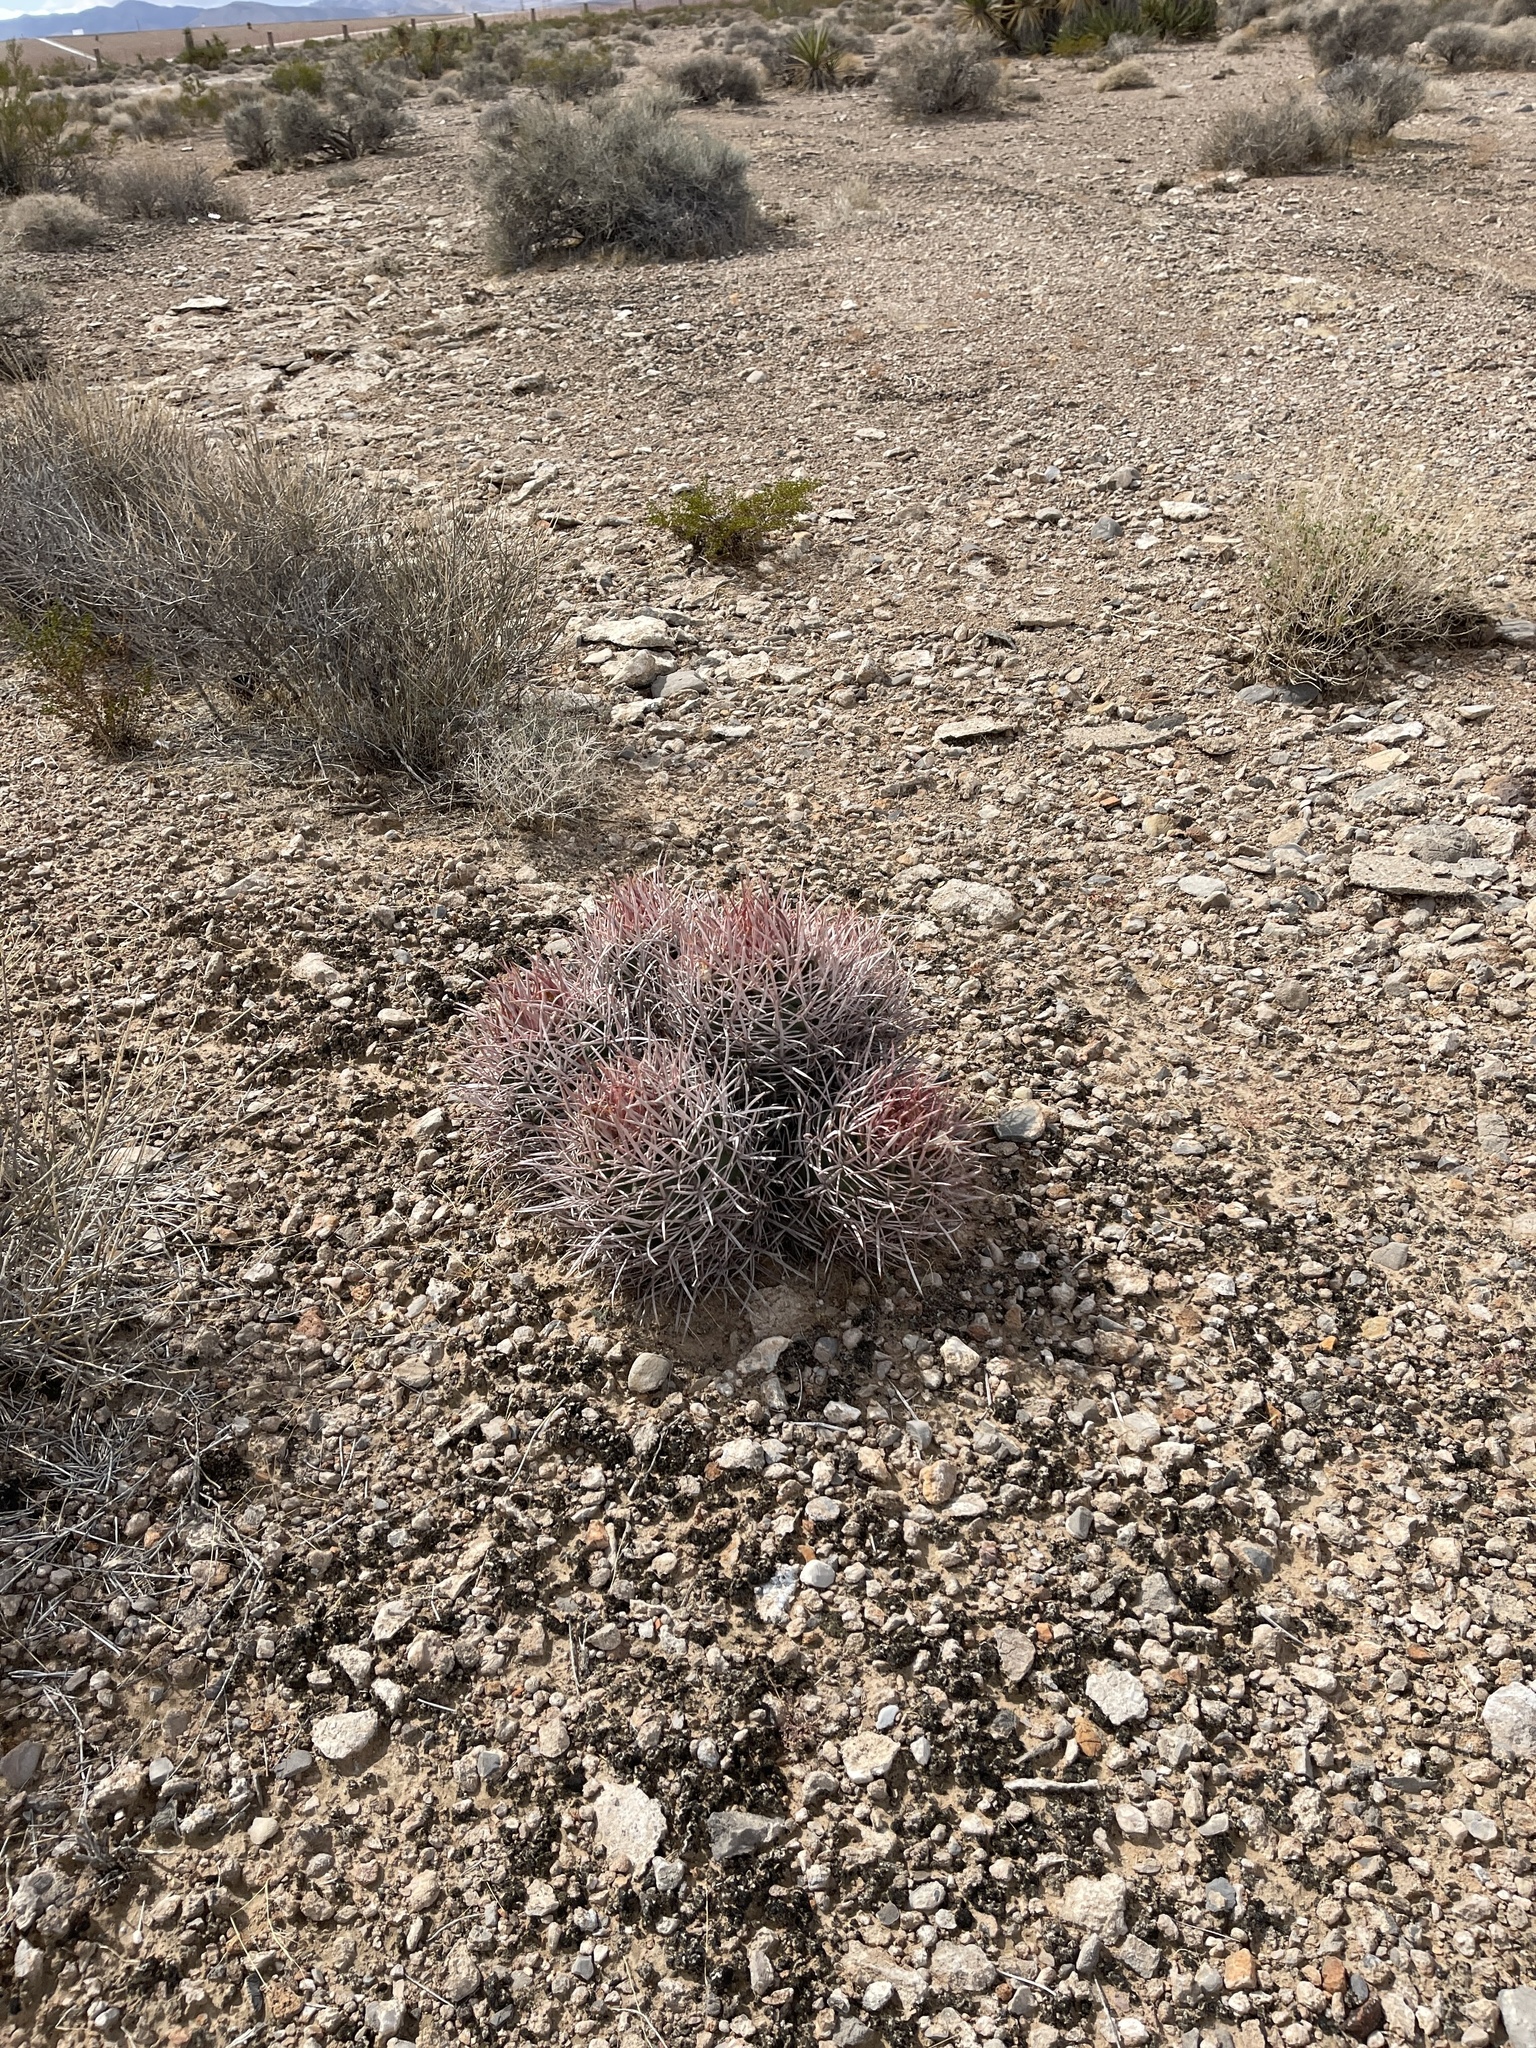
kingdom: Plantae
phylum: Tracheophyta
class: Magnoliopsida
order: Caryophyllales
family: Cactaceae
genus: Echinocactus
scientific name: Echinocactus polycephalus
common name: Cottontop cactus
